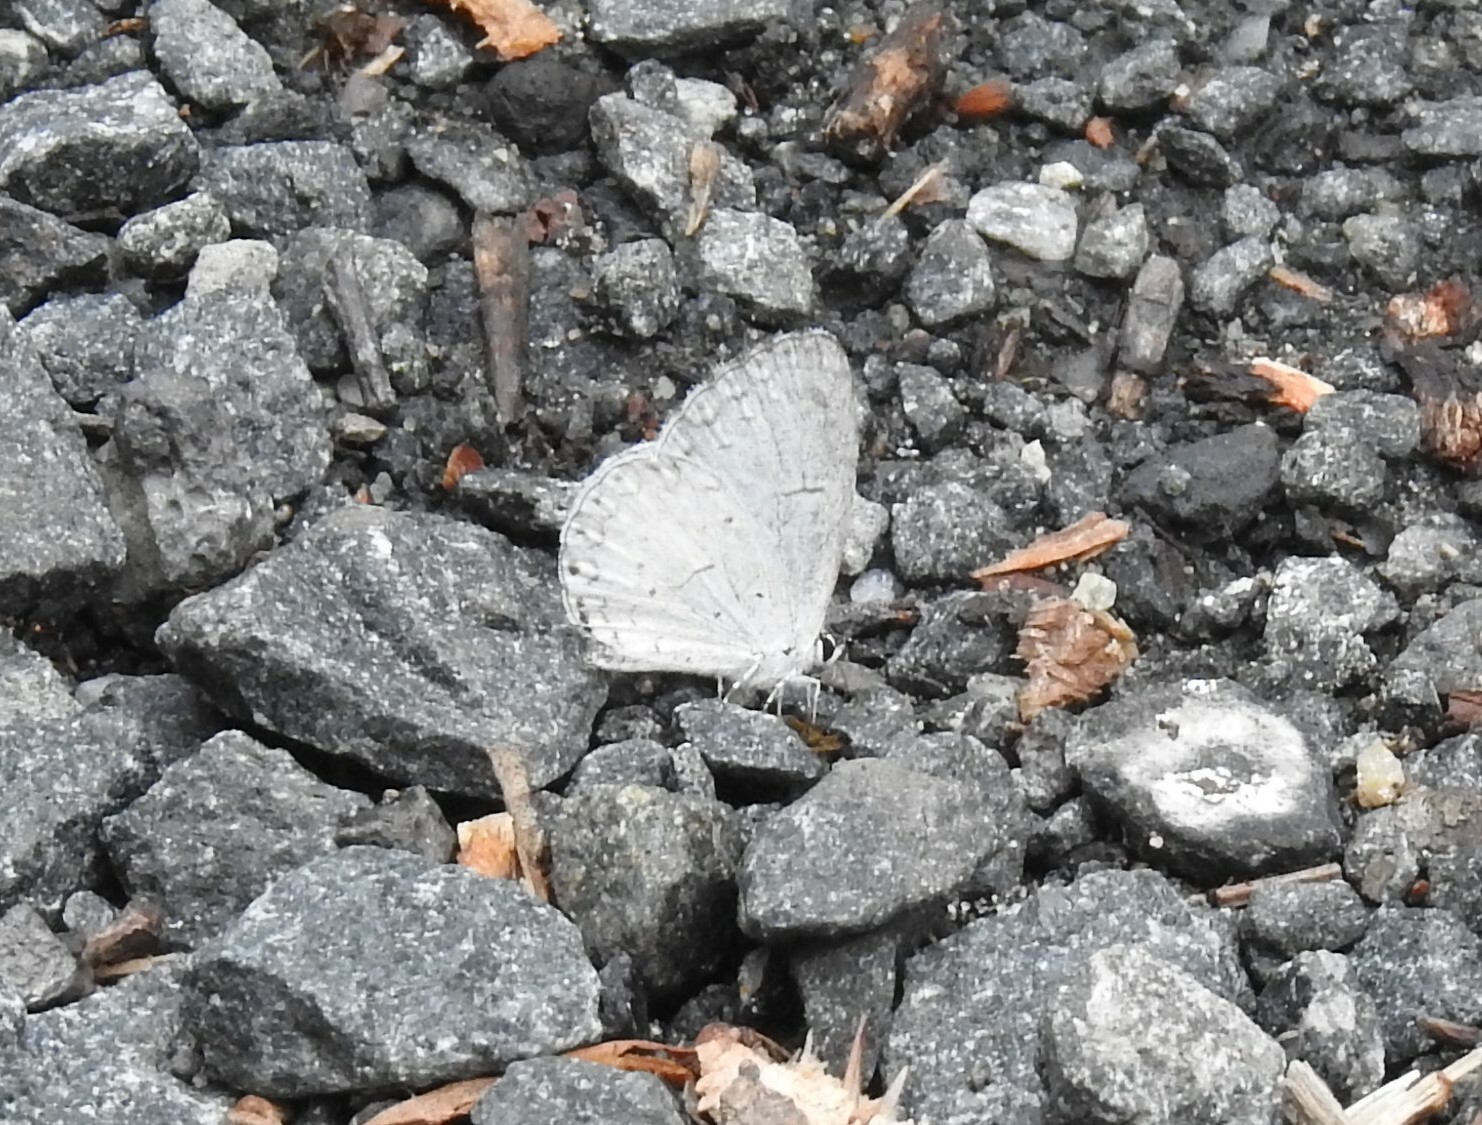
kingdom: Animalia
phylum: Arthropoda
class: Insecta
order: Lepidoptera
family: Lycaenidae
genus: Cyaniris
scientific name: Cyaniris neglecta
